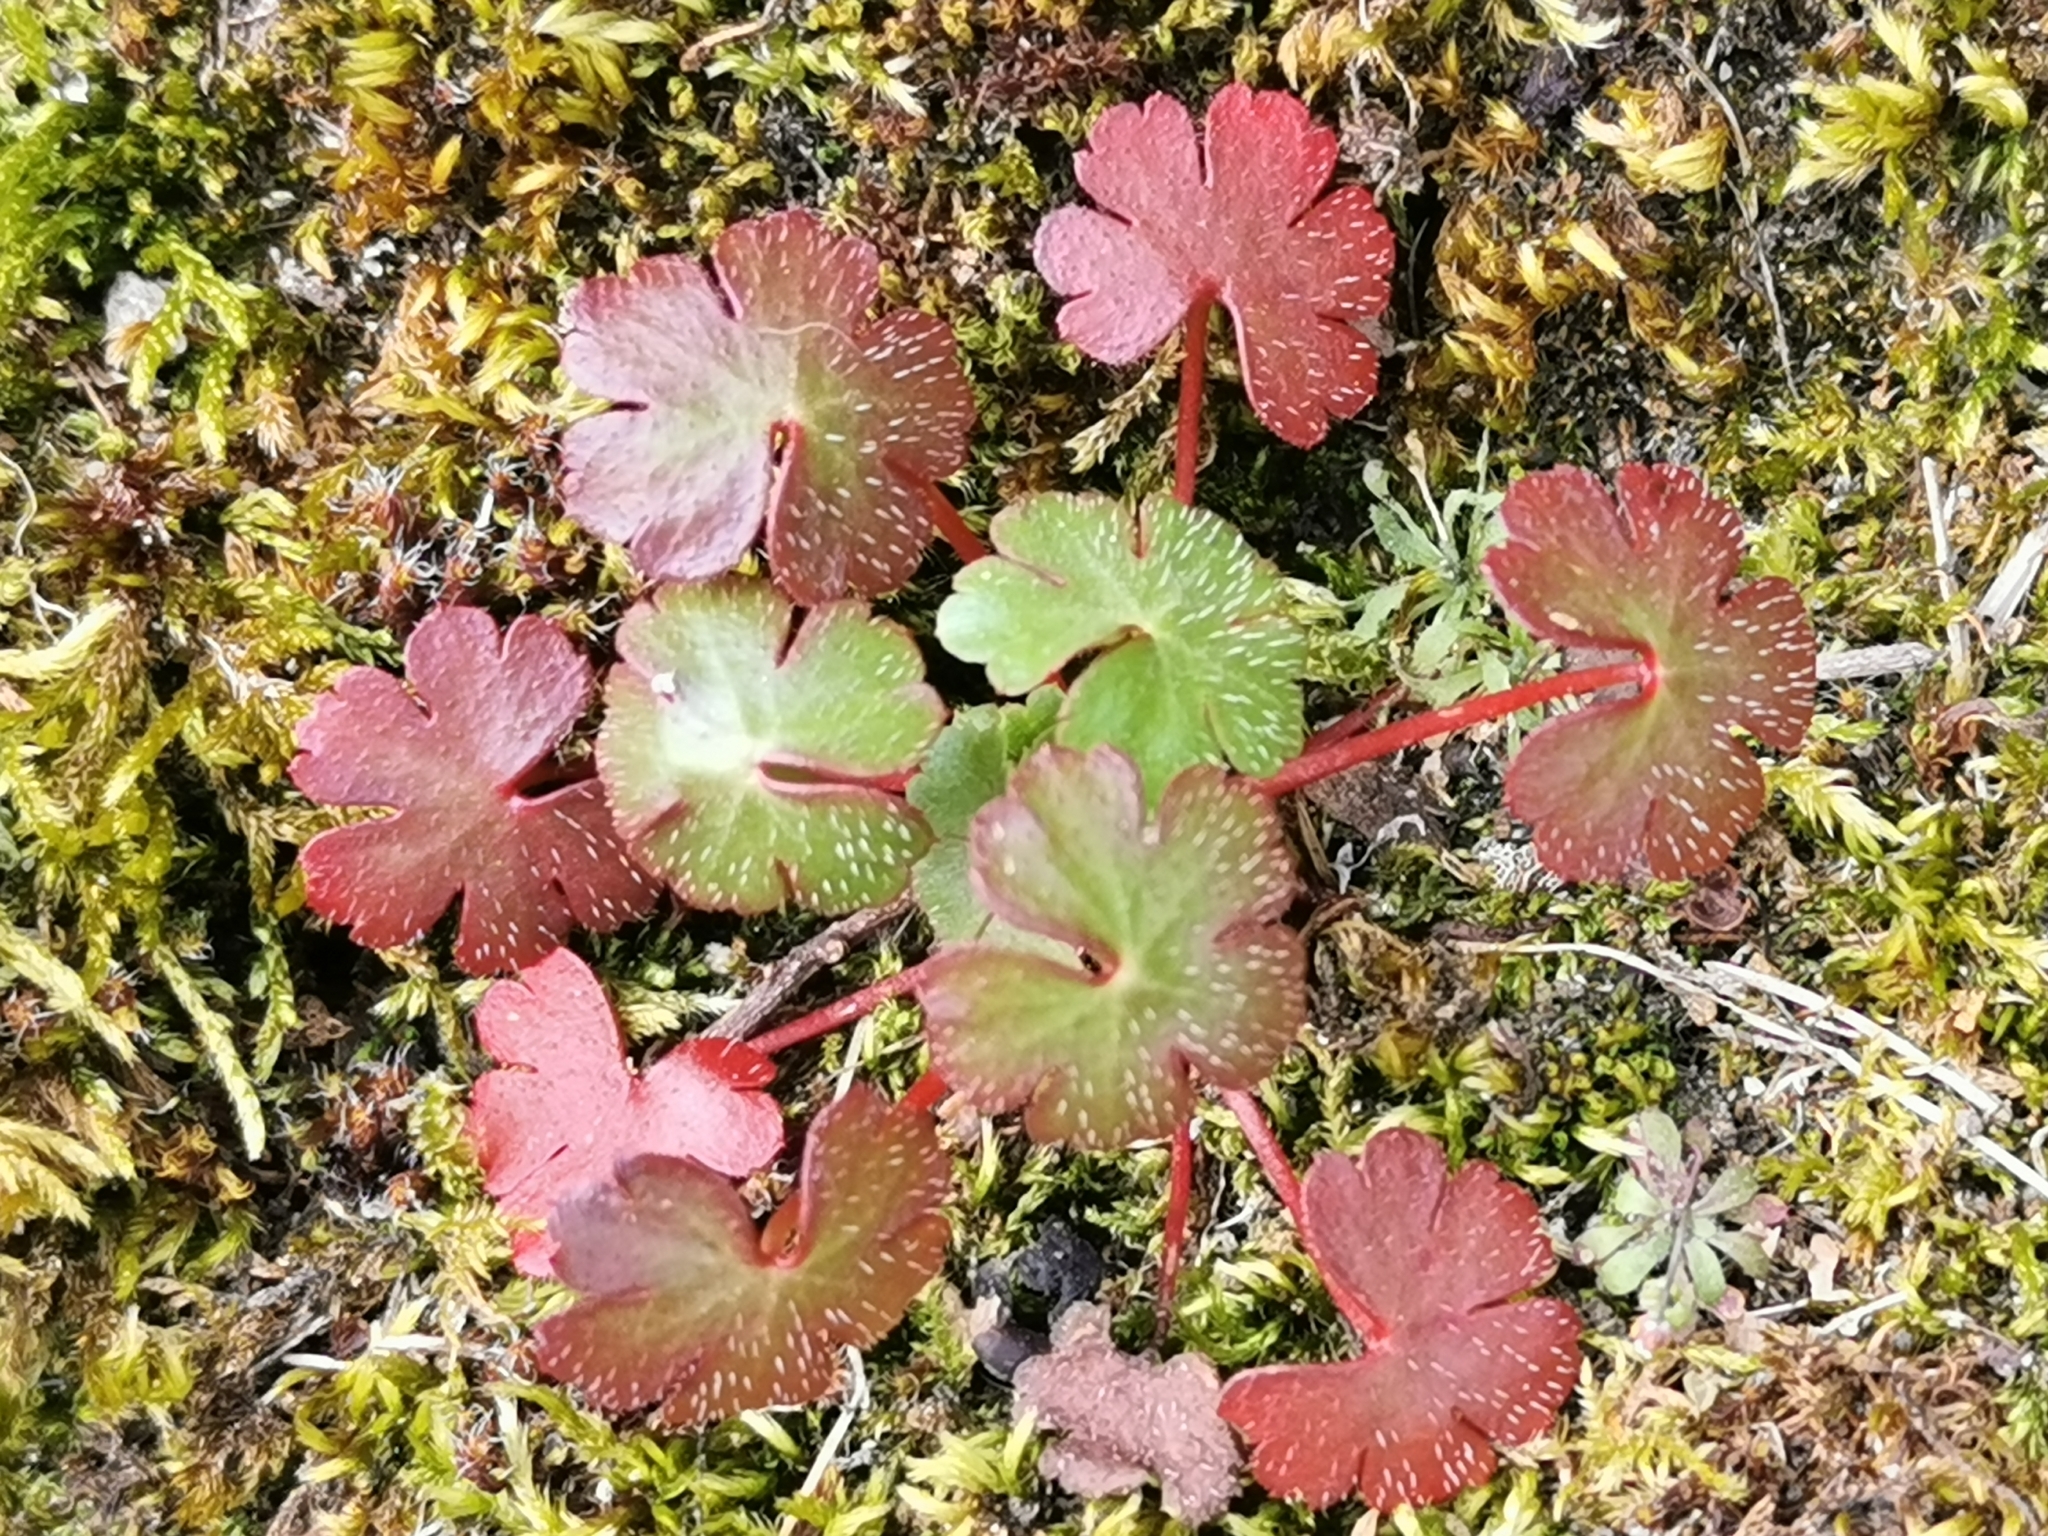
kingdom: Plantae
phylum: Tracheophyta
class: Magnoliopsida
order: Geraniales
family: Geraniaceae
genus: Geranium
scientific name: Geranium lucidum
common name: Shining crane's-bill
